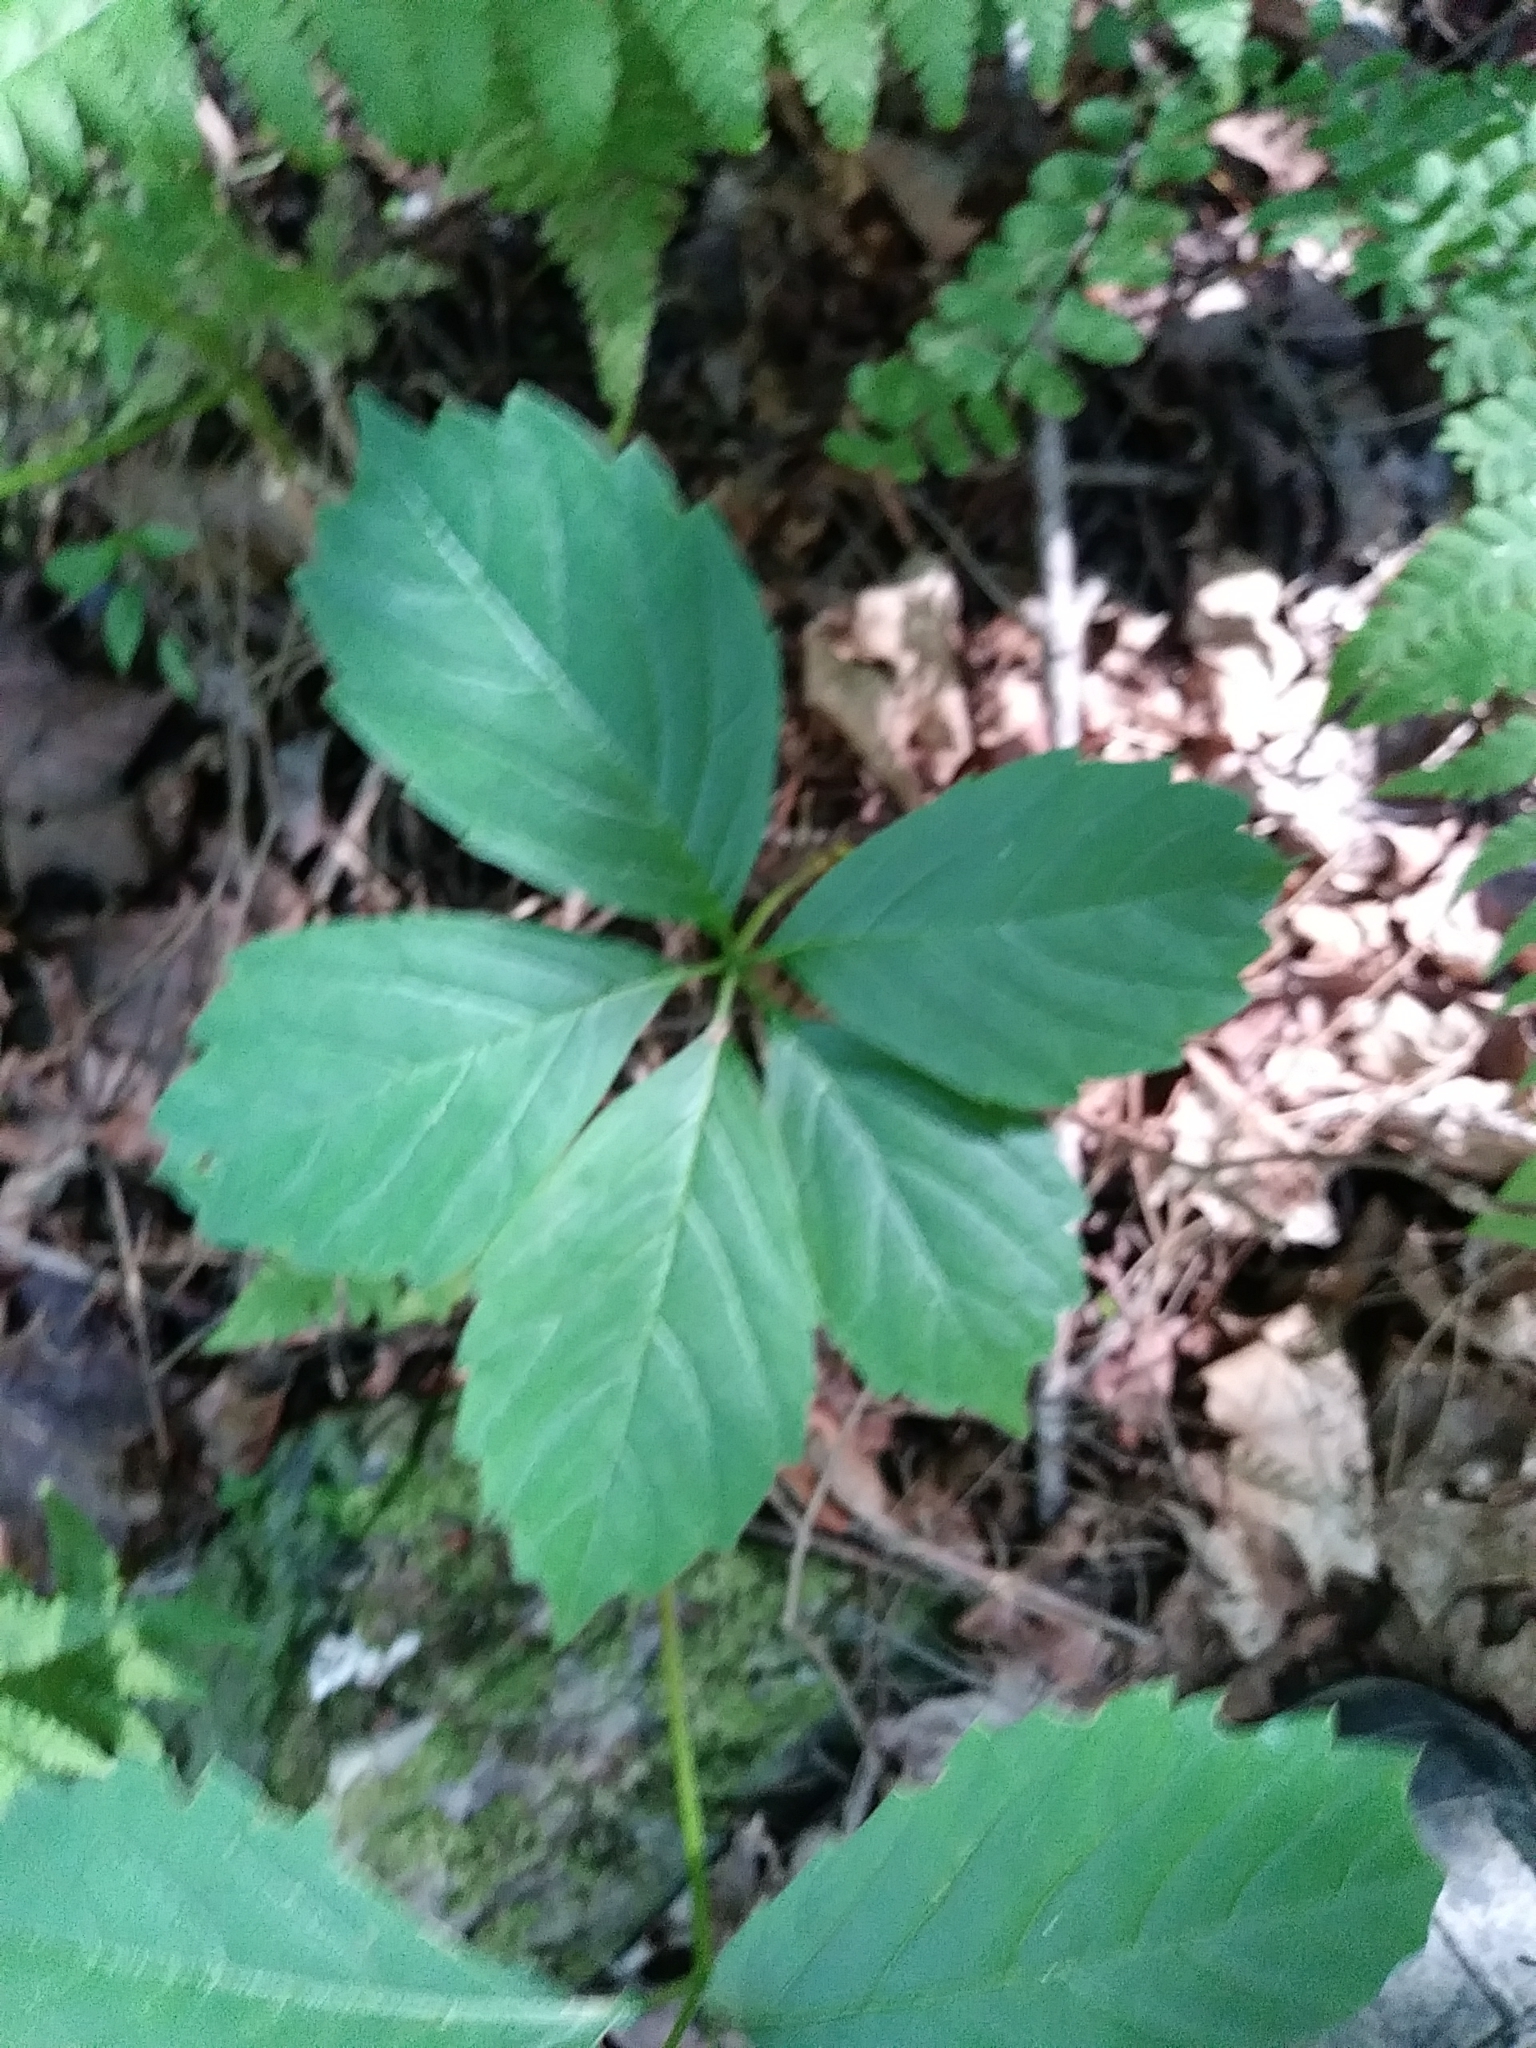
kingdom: Plantae
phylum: Tracheophyta
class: Magnoliopsida
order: Vitales
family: Vitaceae
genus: Parthenocissus
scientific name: Parthenocissus quinquefolia
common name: Virginia-creeper
